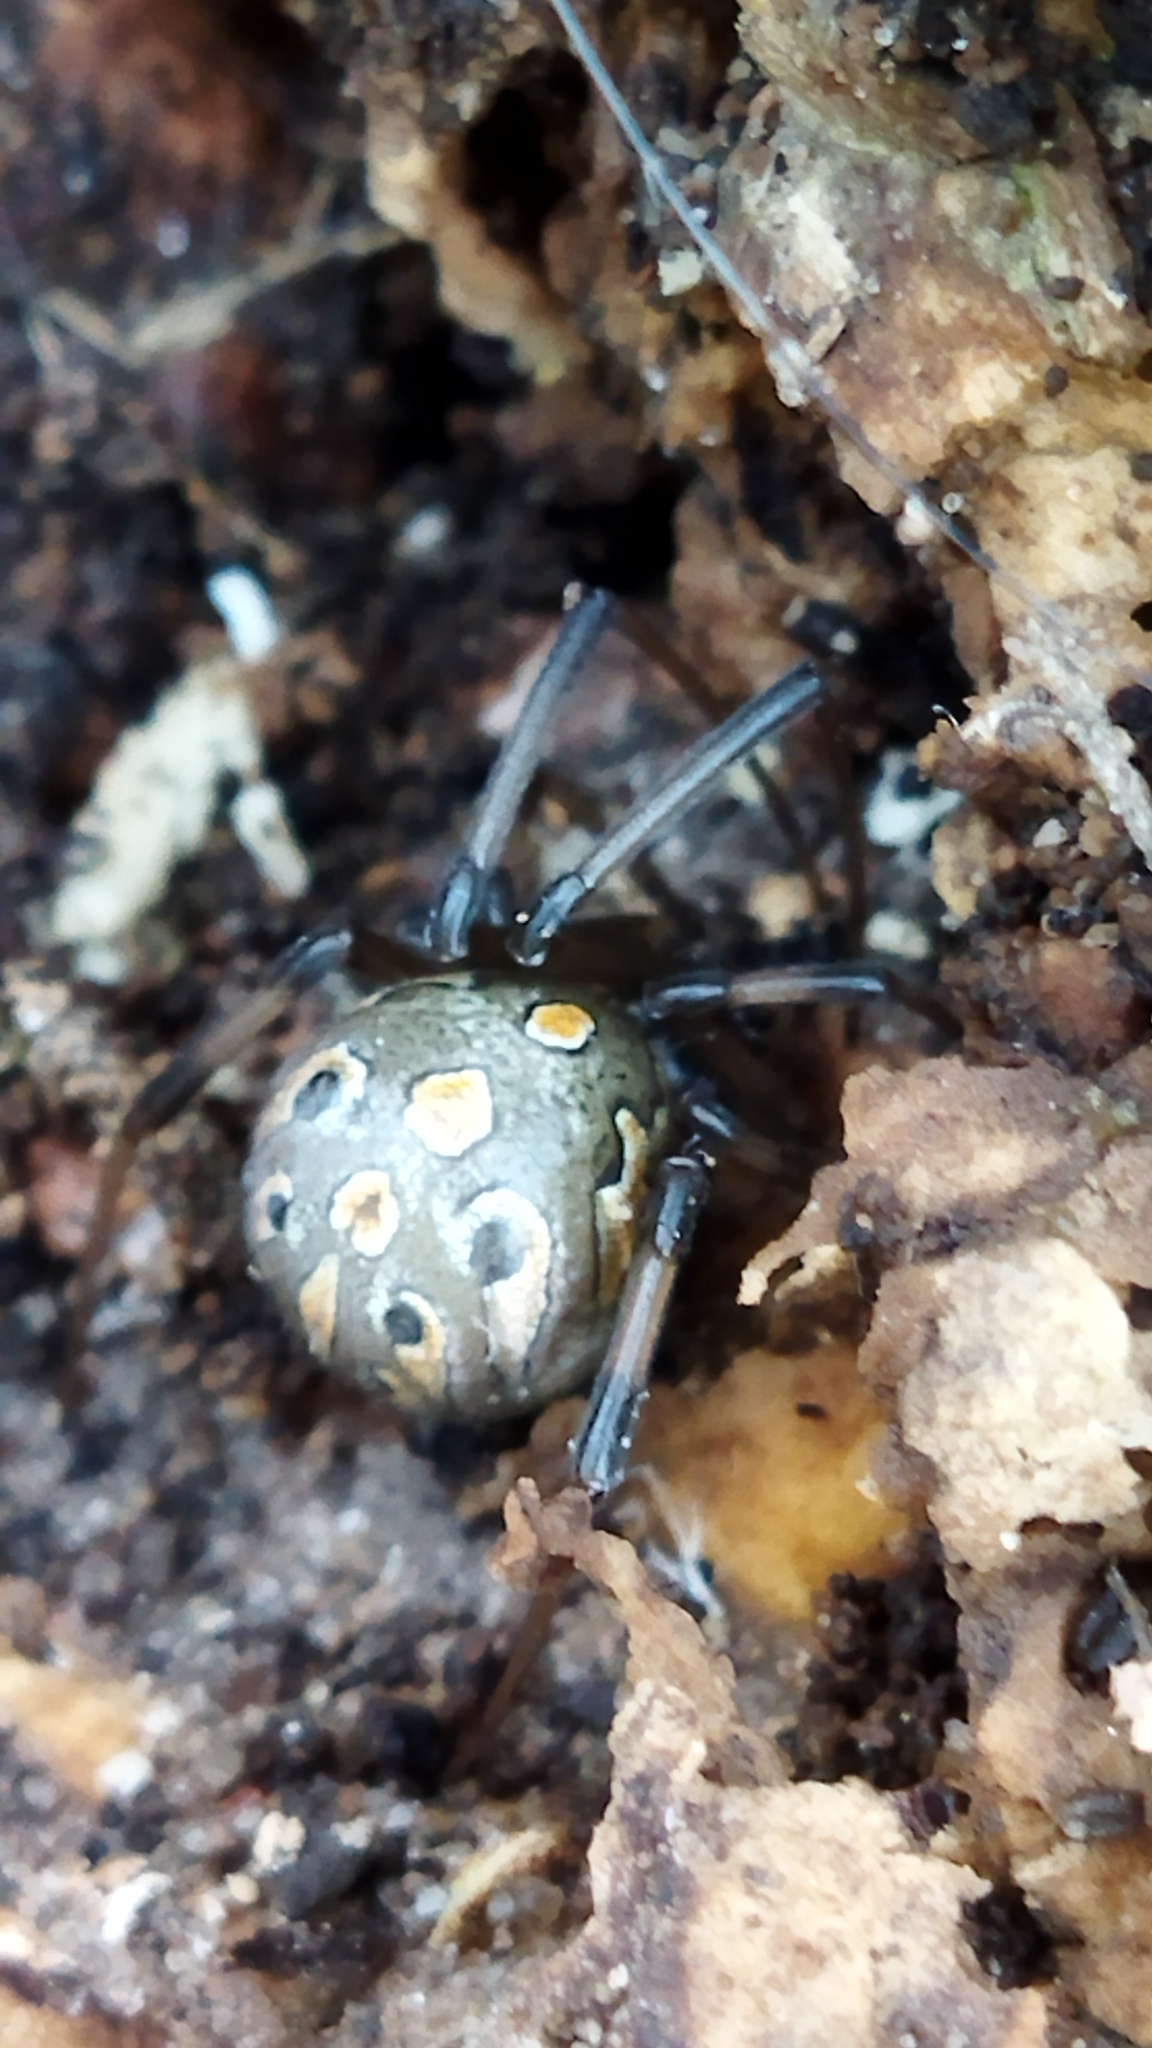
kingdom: Animalia
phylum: Arthropoda
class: Arachnida
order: Araneae
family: Theridiidae
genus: Latrodectus
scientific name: Latrodectus geometricus
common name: Brown widow spider
